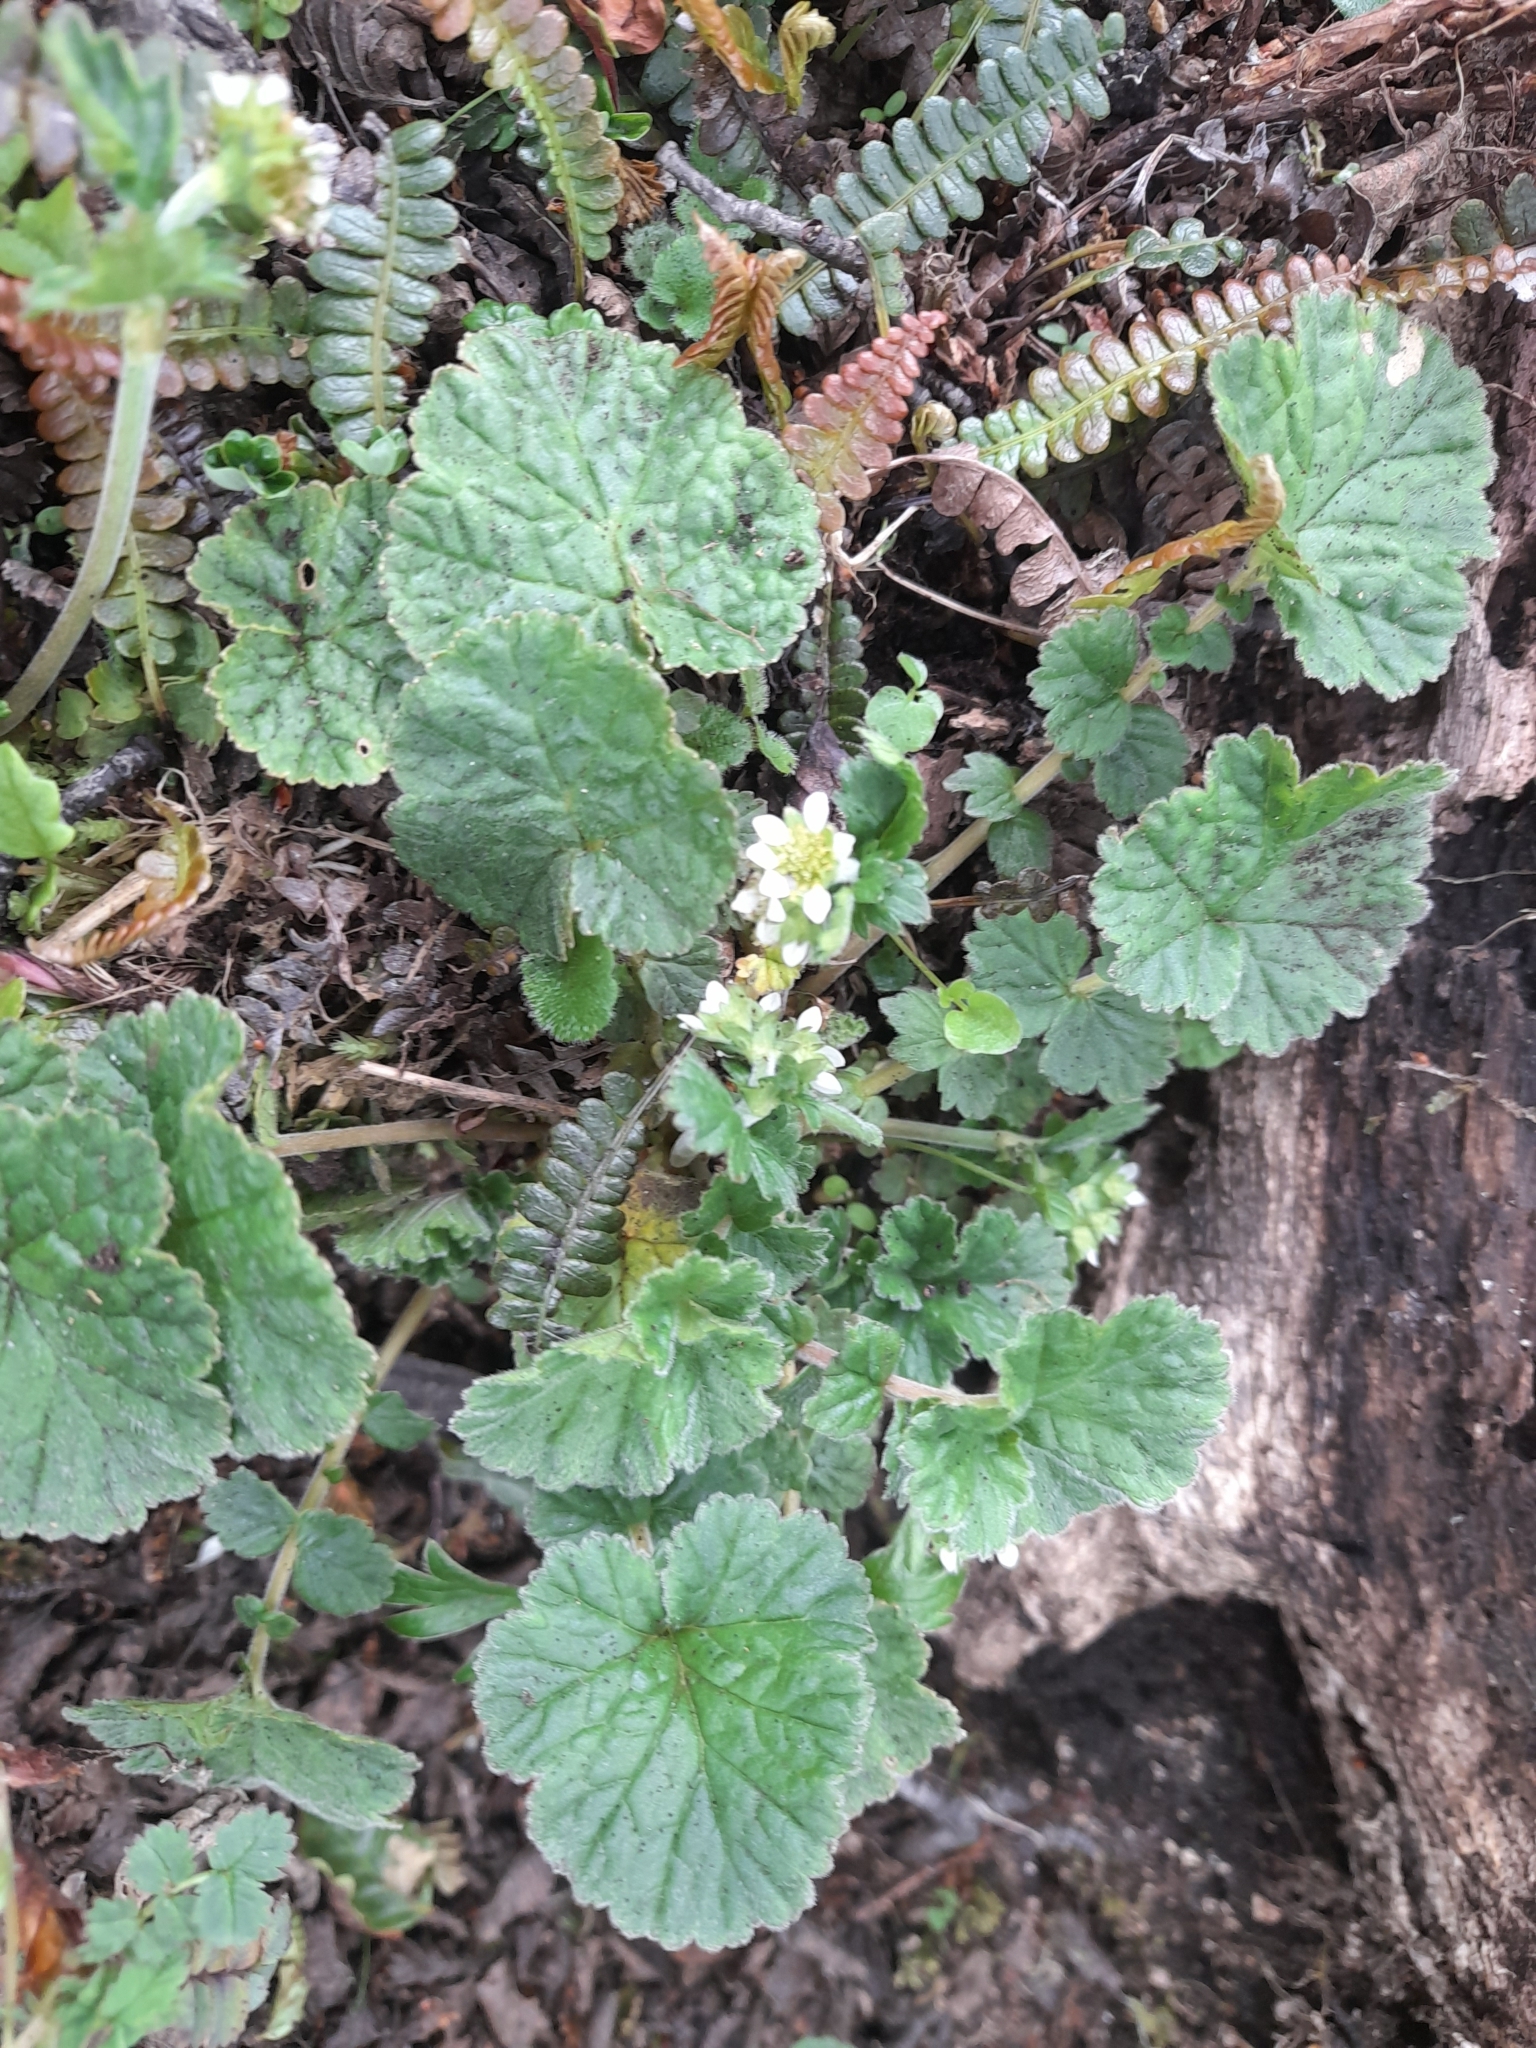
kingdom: Plantae
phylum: Tracheophyta
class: Magnoliopsida
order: Rosales
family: Rosaceae
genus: Geum
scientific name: Geum involucratum
